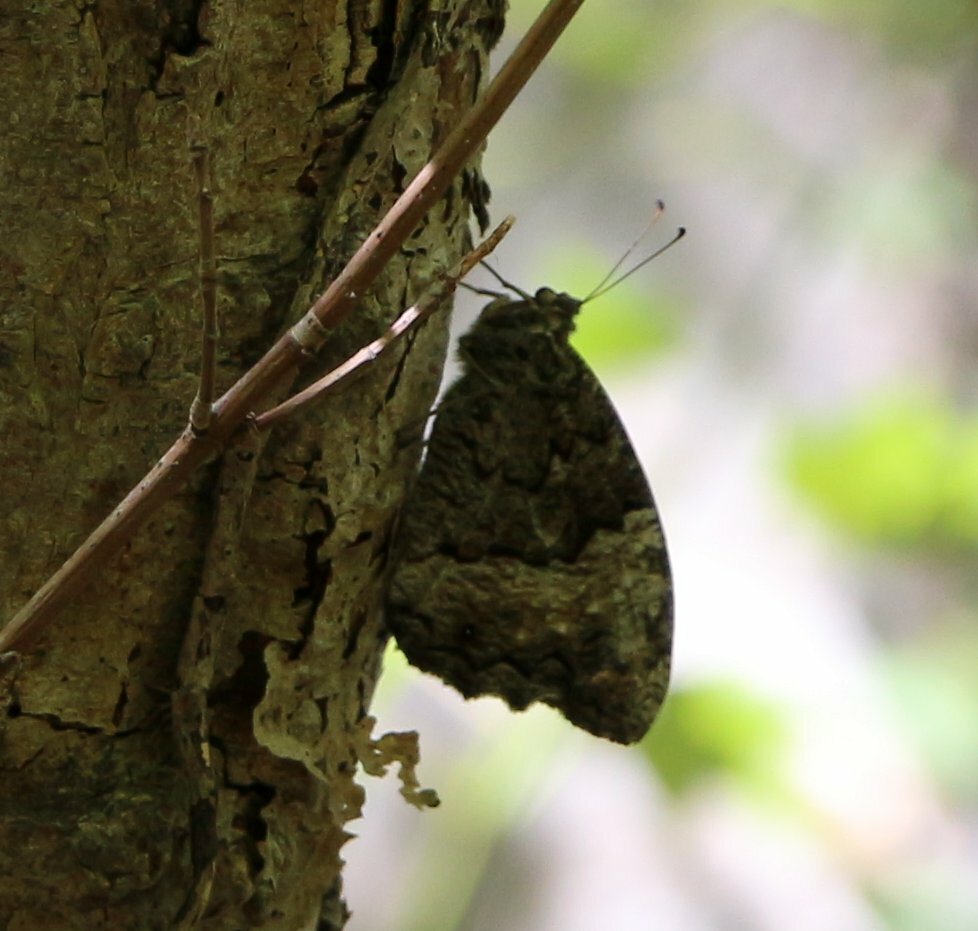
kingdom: Animalia
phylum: Arthropoda
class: Insecta
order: Lepidoptera
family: Nymphalidae
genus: Hipparchia
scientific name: Hipparchia fagi
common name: Woodland grayling
